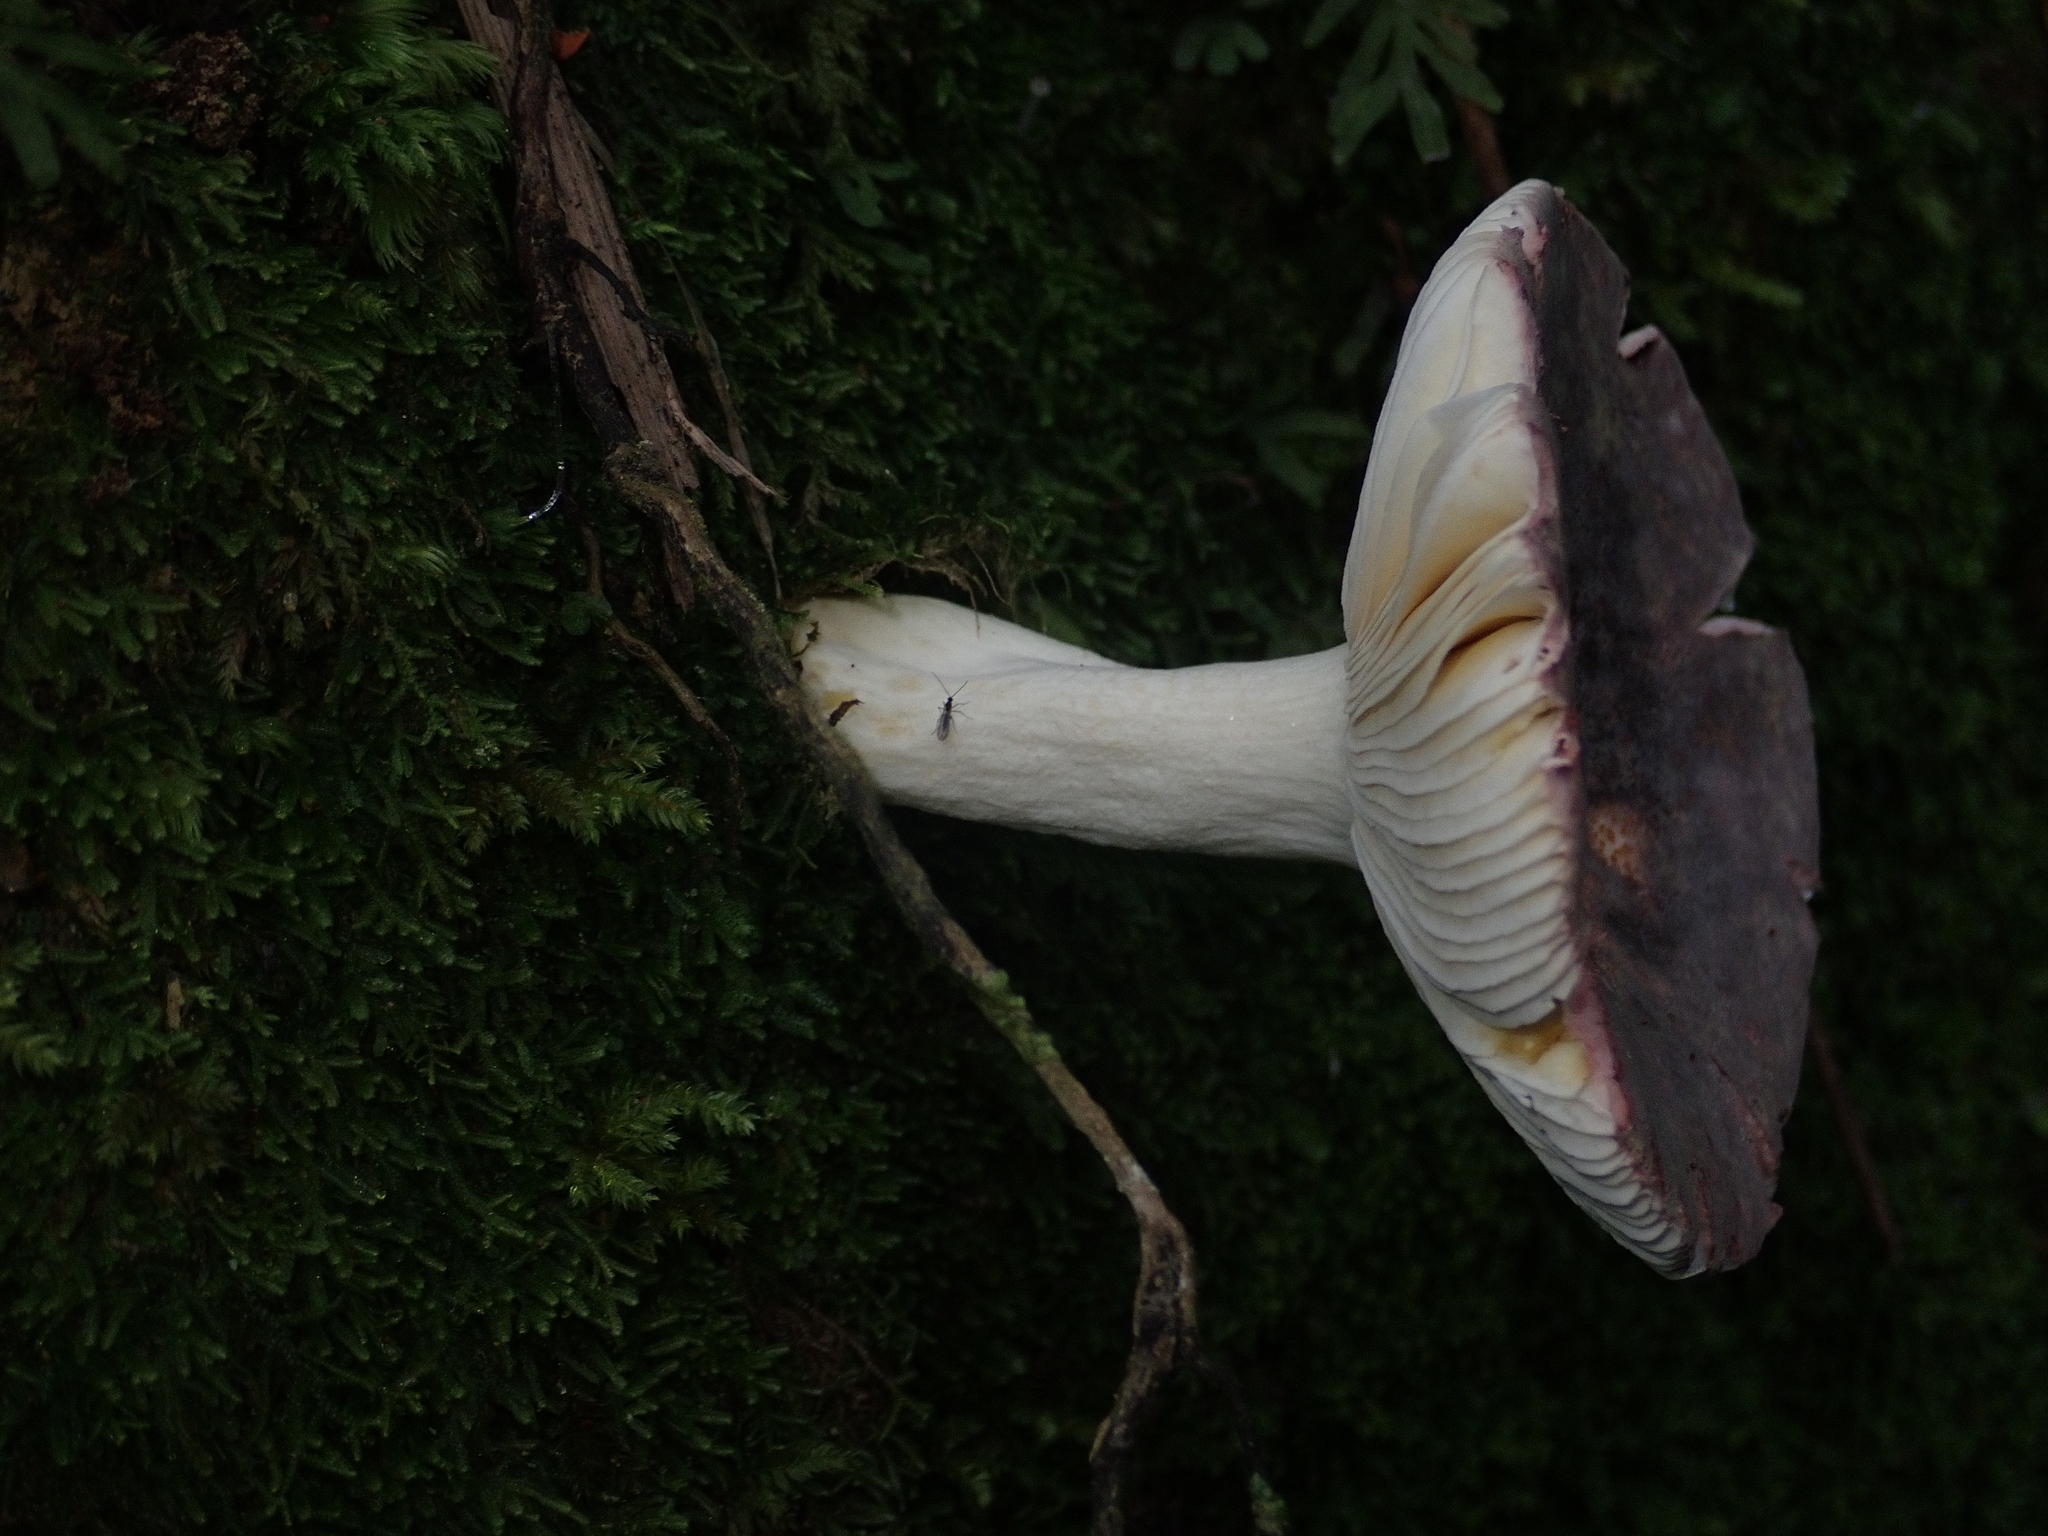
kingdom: Fungi
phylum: Basidiomycota
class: Agaricomycetes
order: Russulales
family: Russulaceae
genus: Russula
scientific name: Russula
